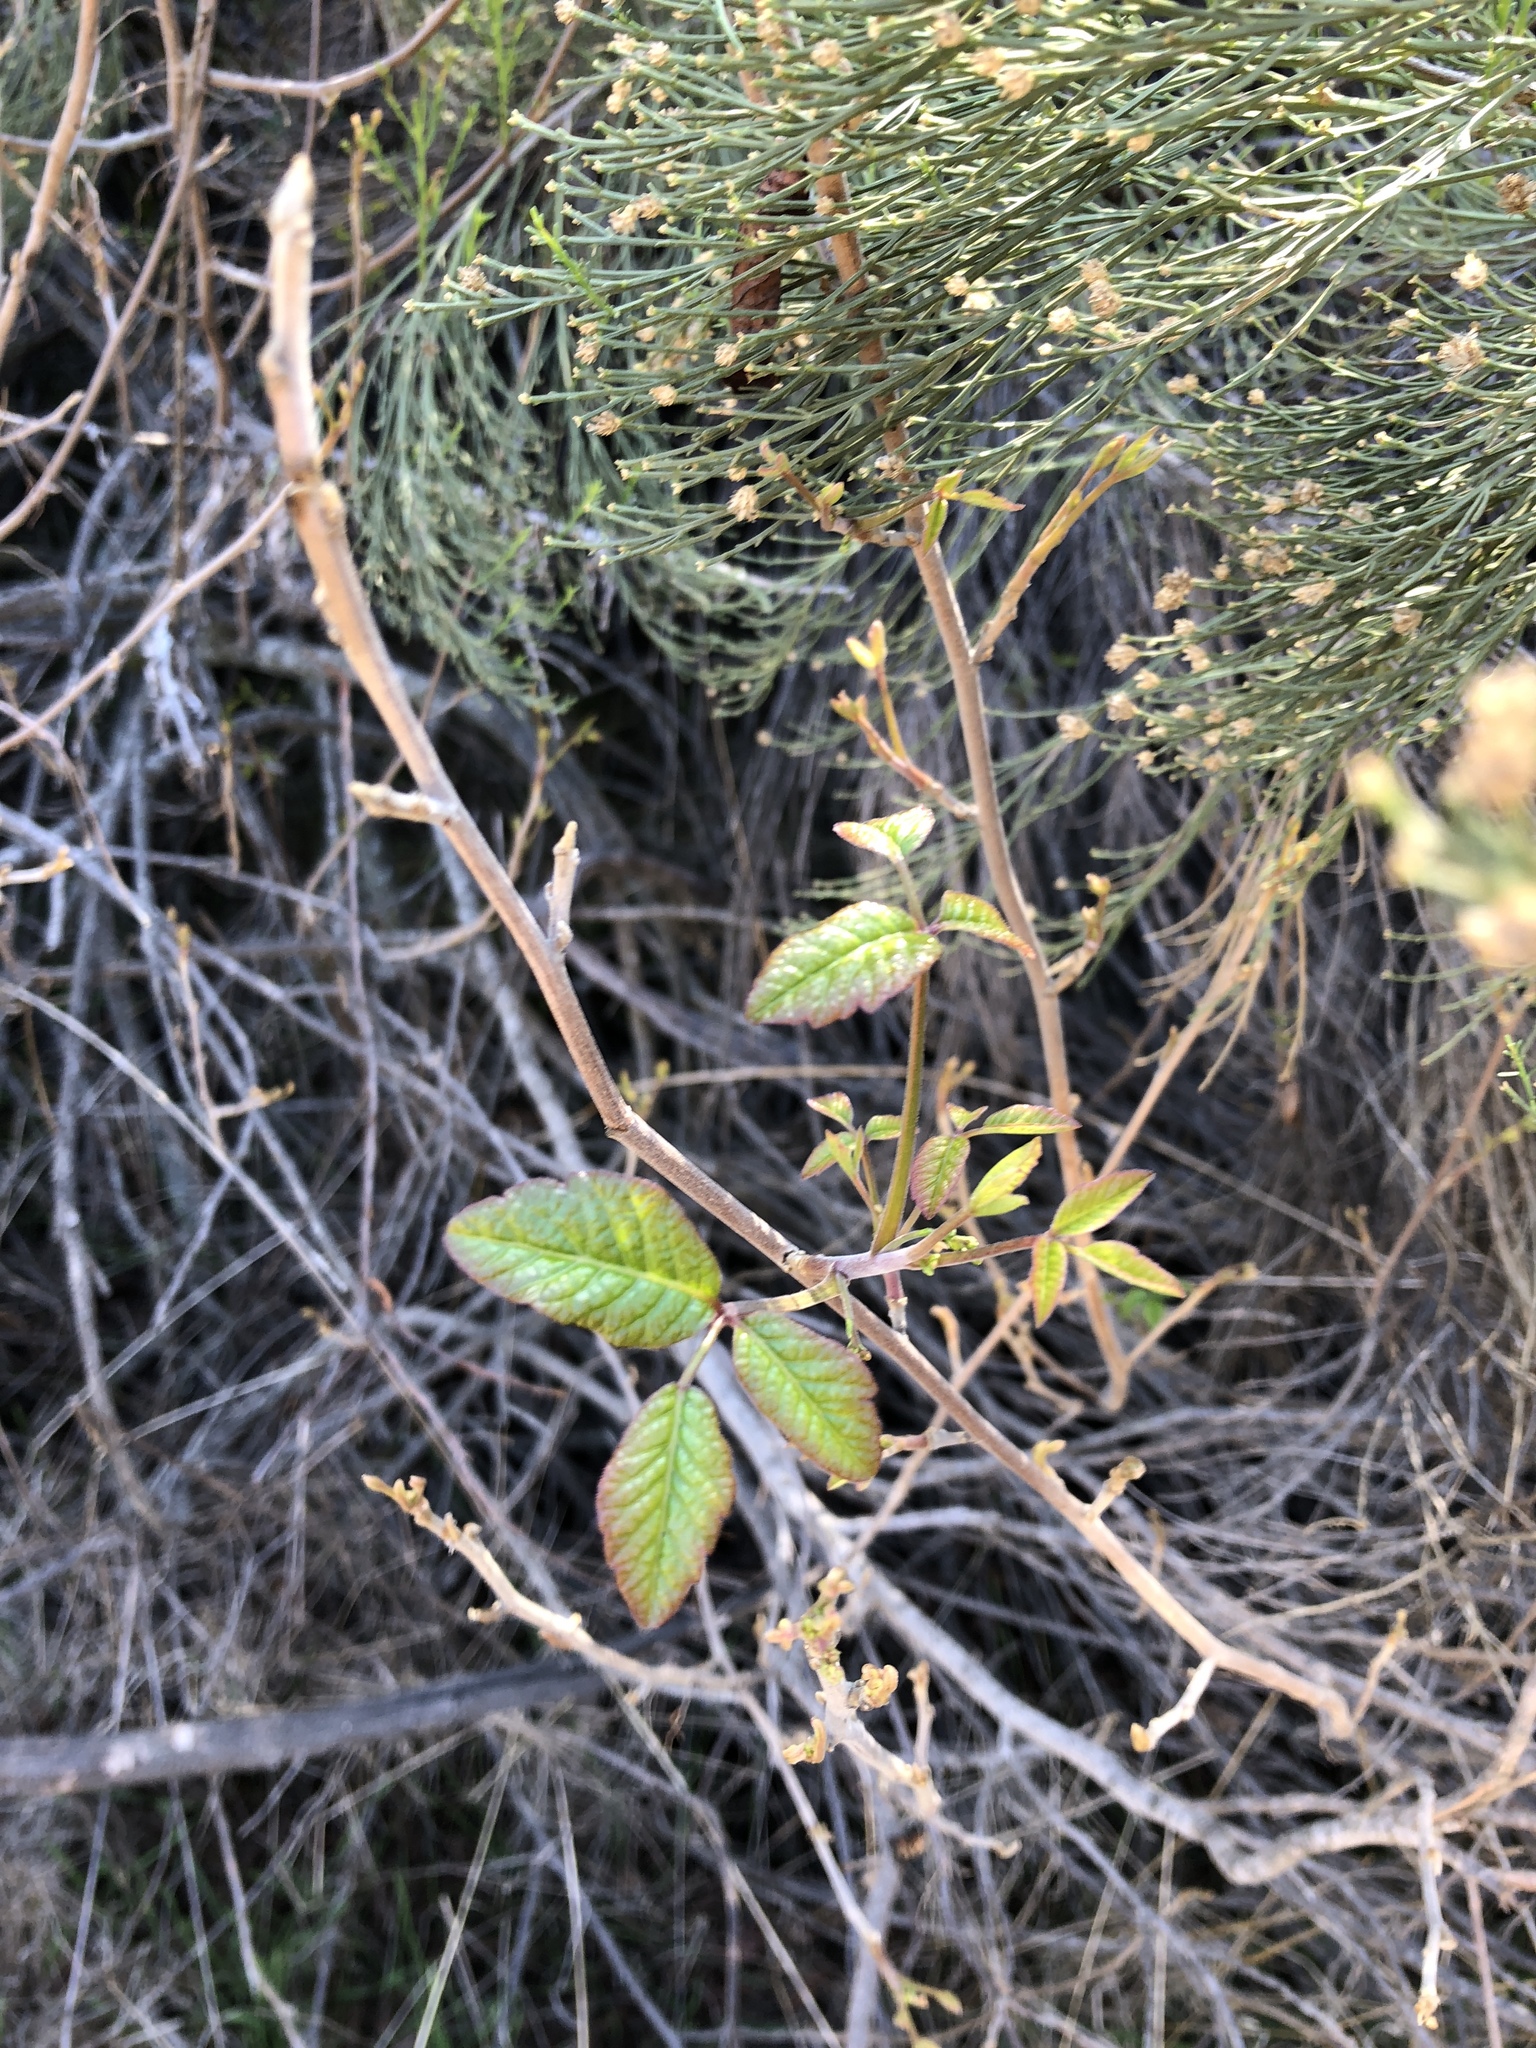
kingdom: Plantae
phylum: Tracheophyta
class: Magnoliopsida
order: Sapindales
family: Anacardiaceae
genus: Toxicodendron
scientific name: Toxicodendron diversilobum
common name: Pacific poison-oak
